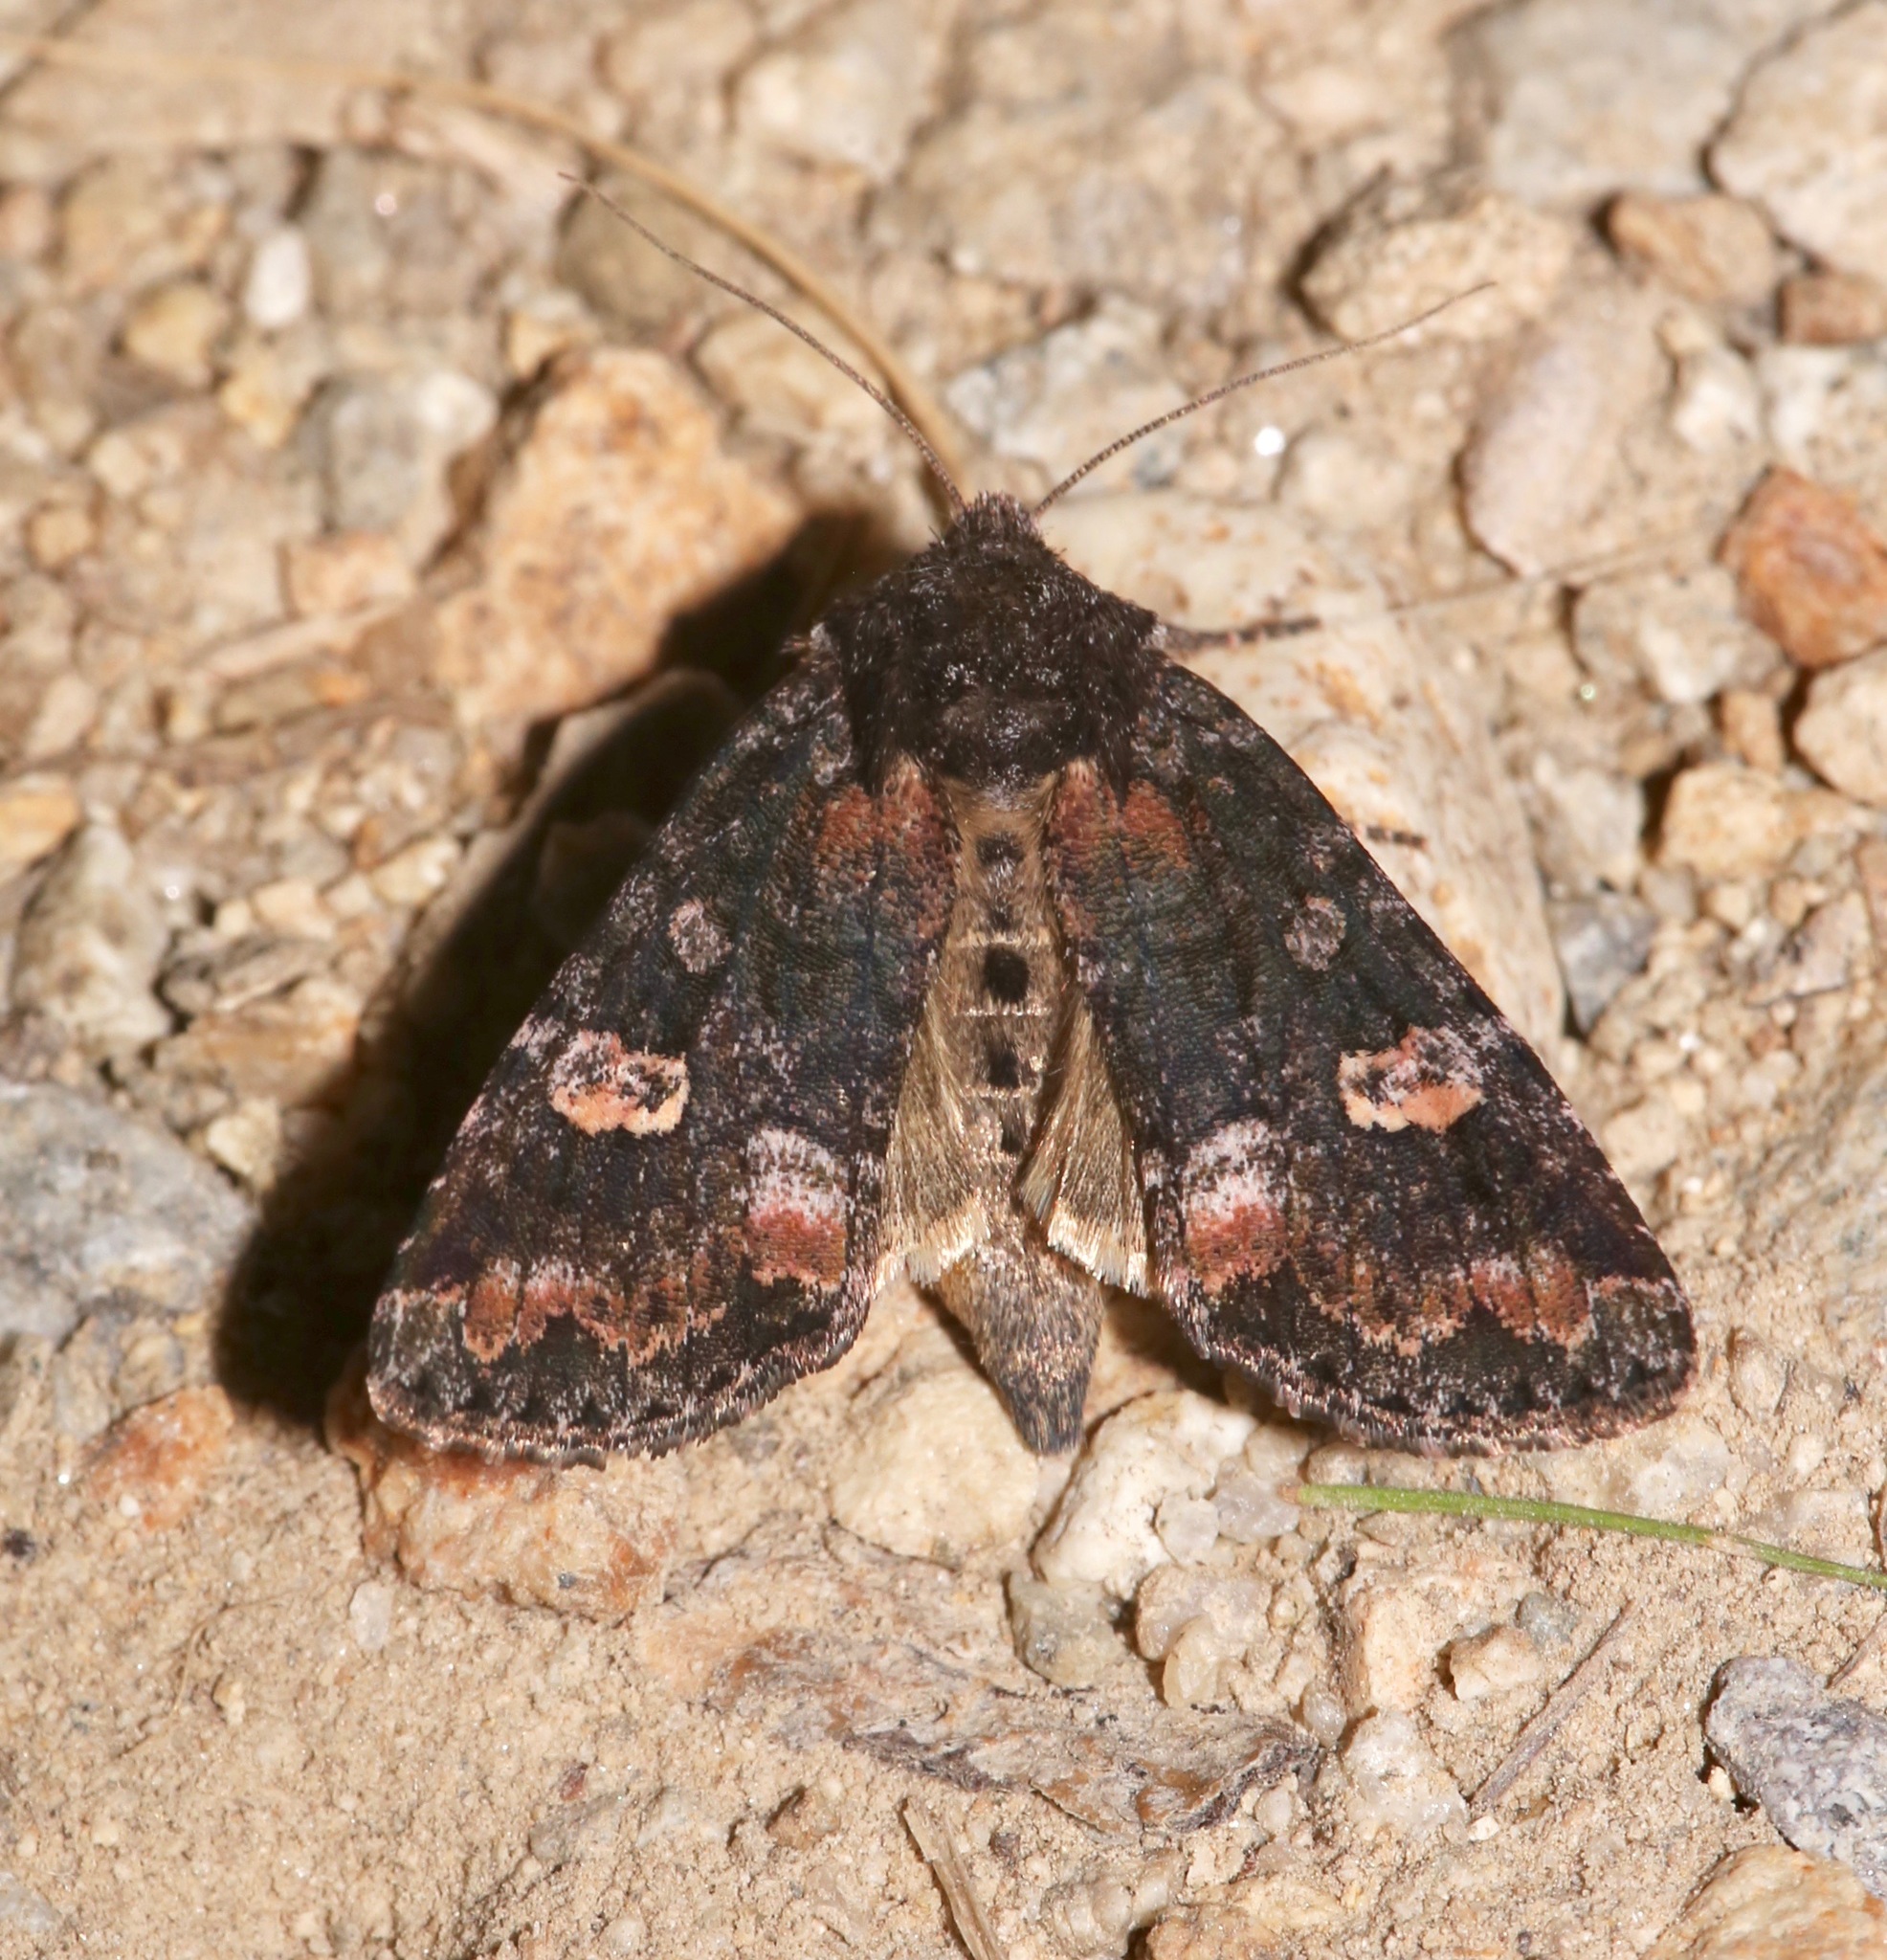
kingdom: Animalia
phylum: Arthropoda
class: Insecta
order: Lepidoptera
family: Noctuidae
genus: Spiramater
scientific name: Spiramater lutra
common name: Otter spiramater moth
